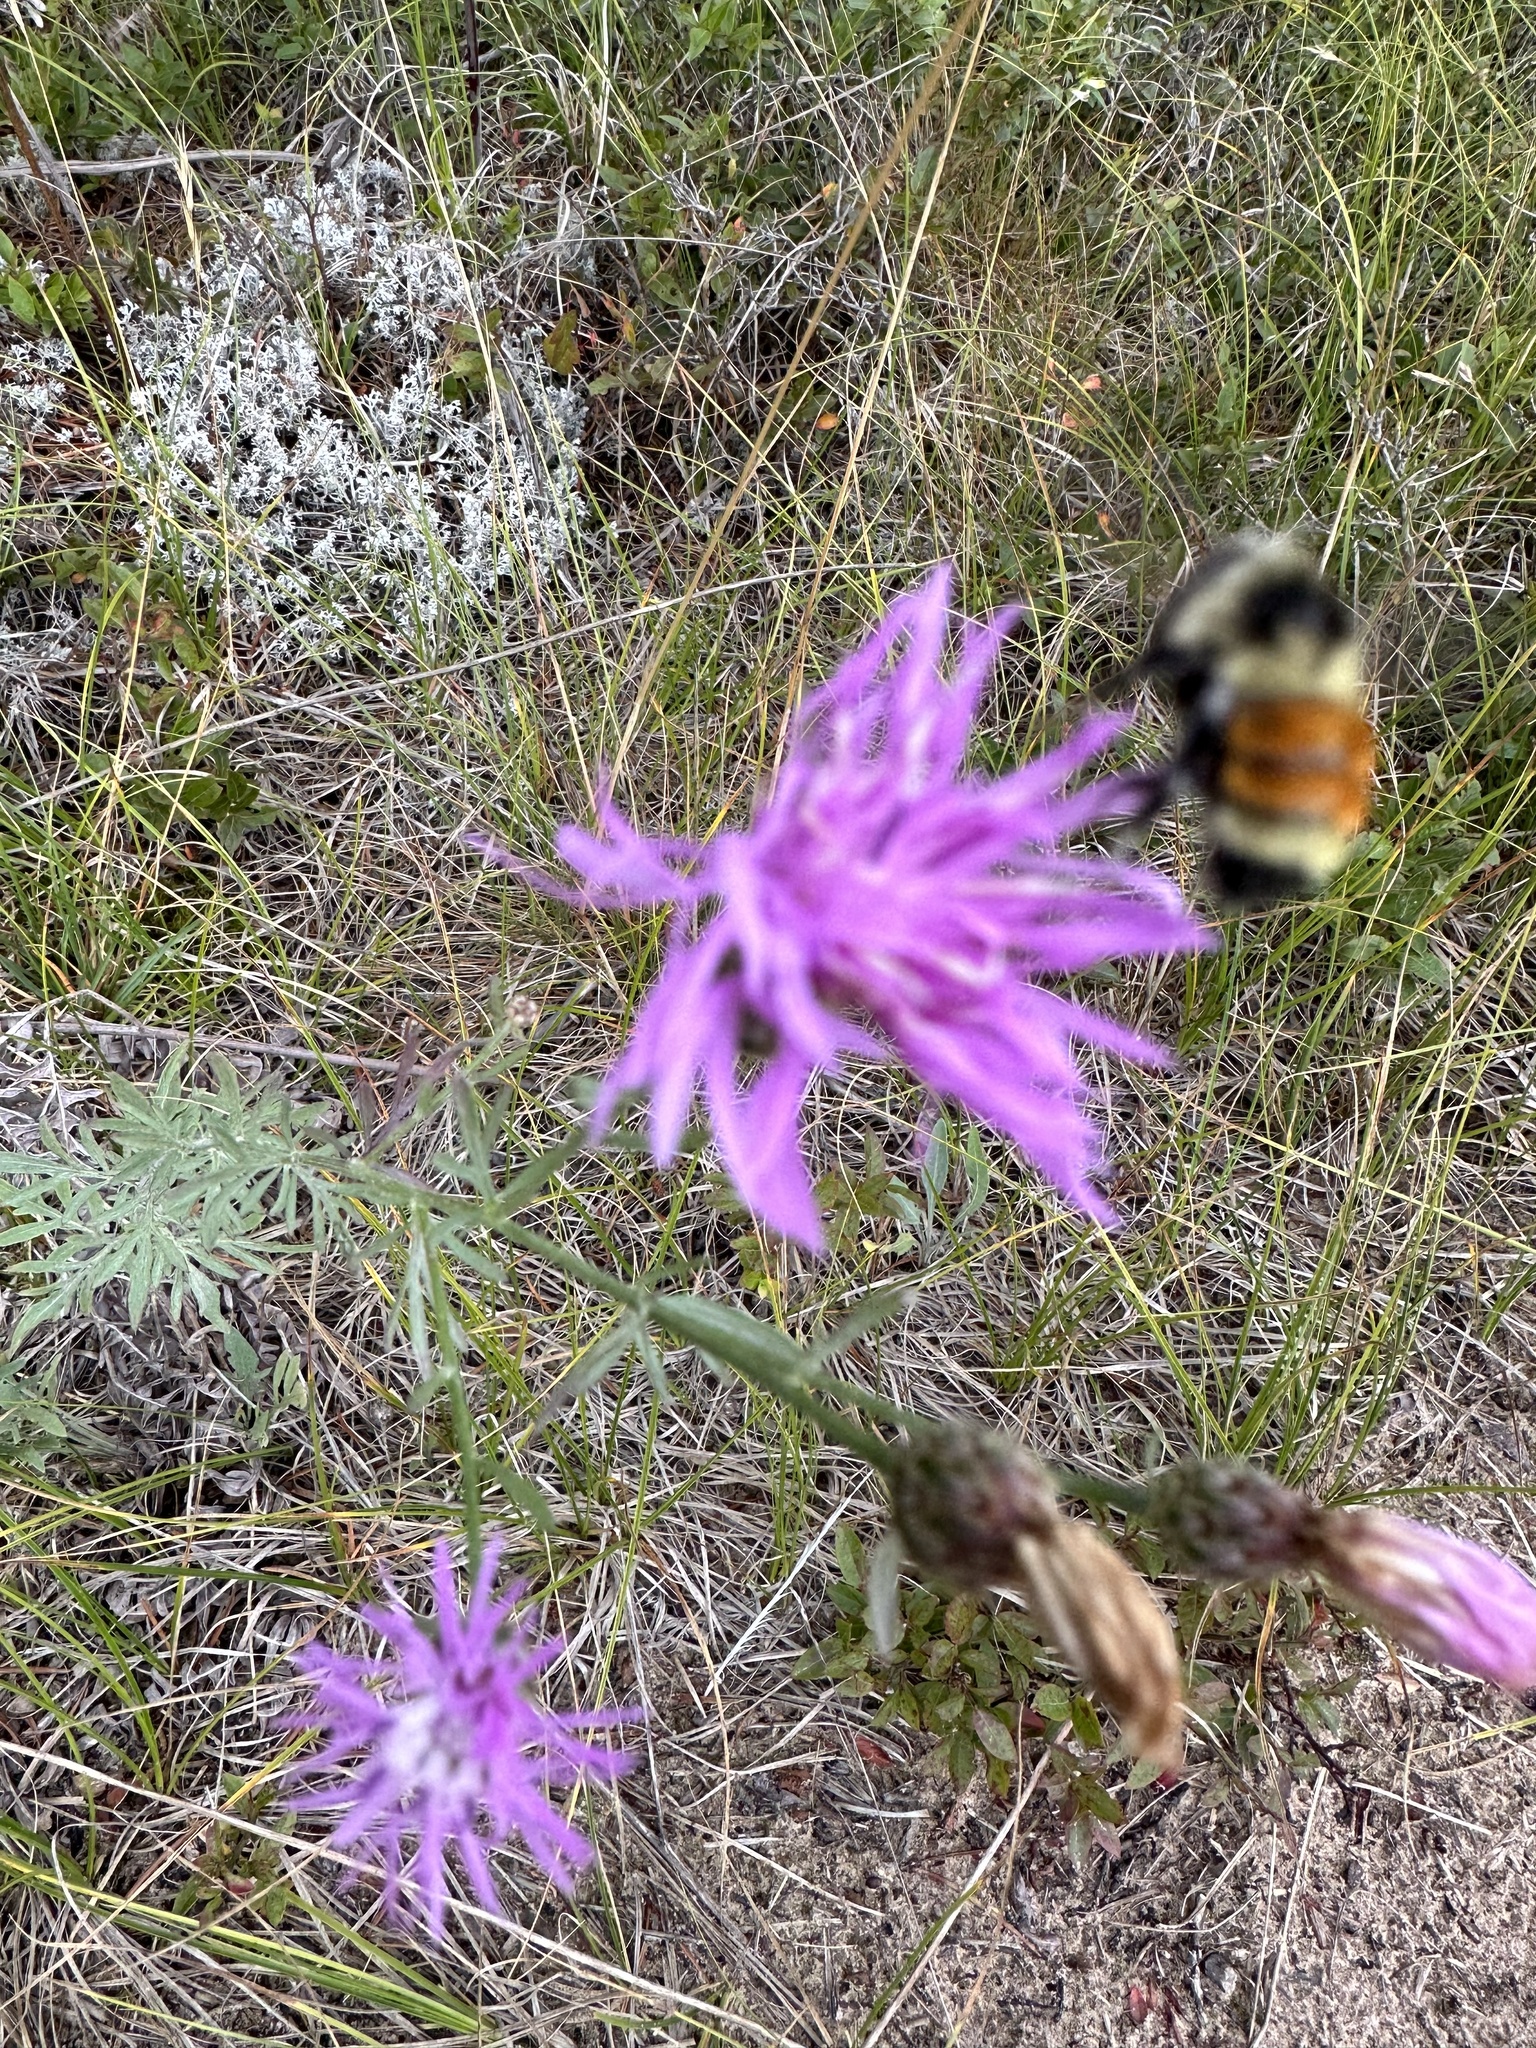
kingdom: Animalia
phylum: Arthropoda
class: Insecta
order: Hymenoptera
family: Apidae
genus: Bombus
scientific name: Bombus ternarius
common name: Tri-colored bumble bee
